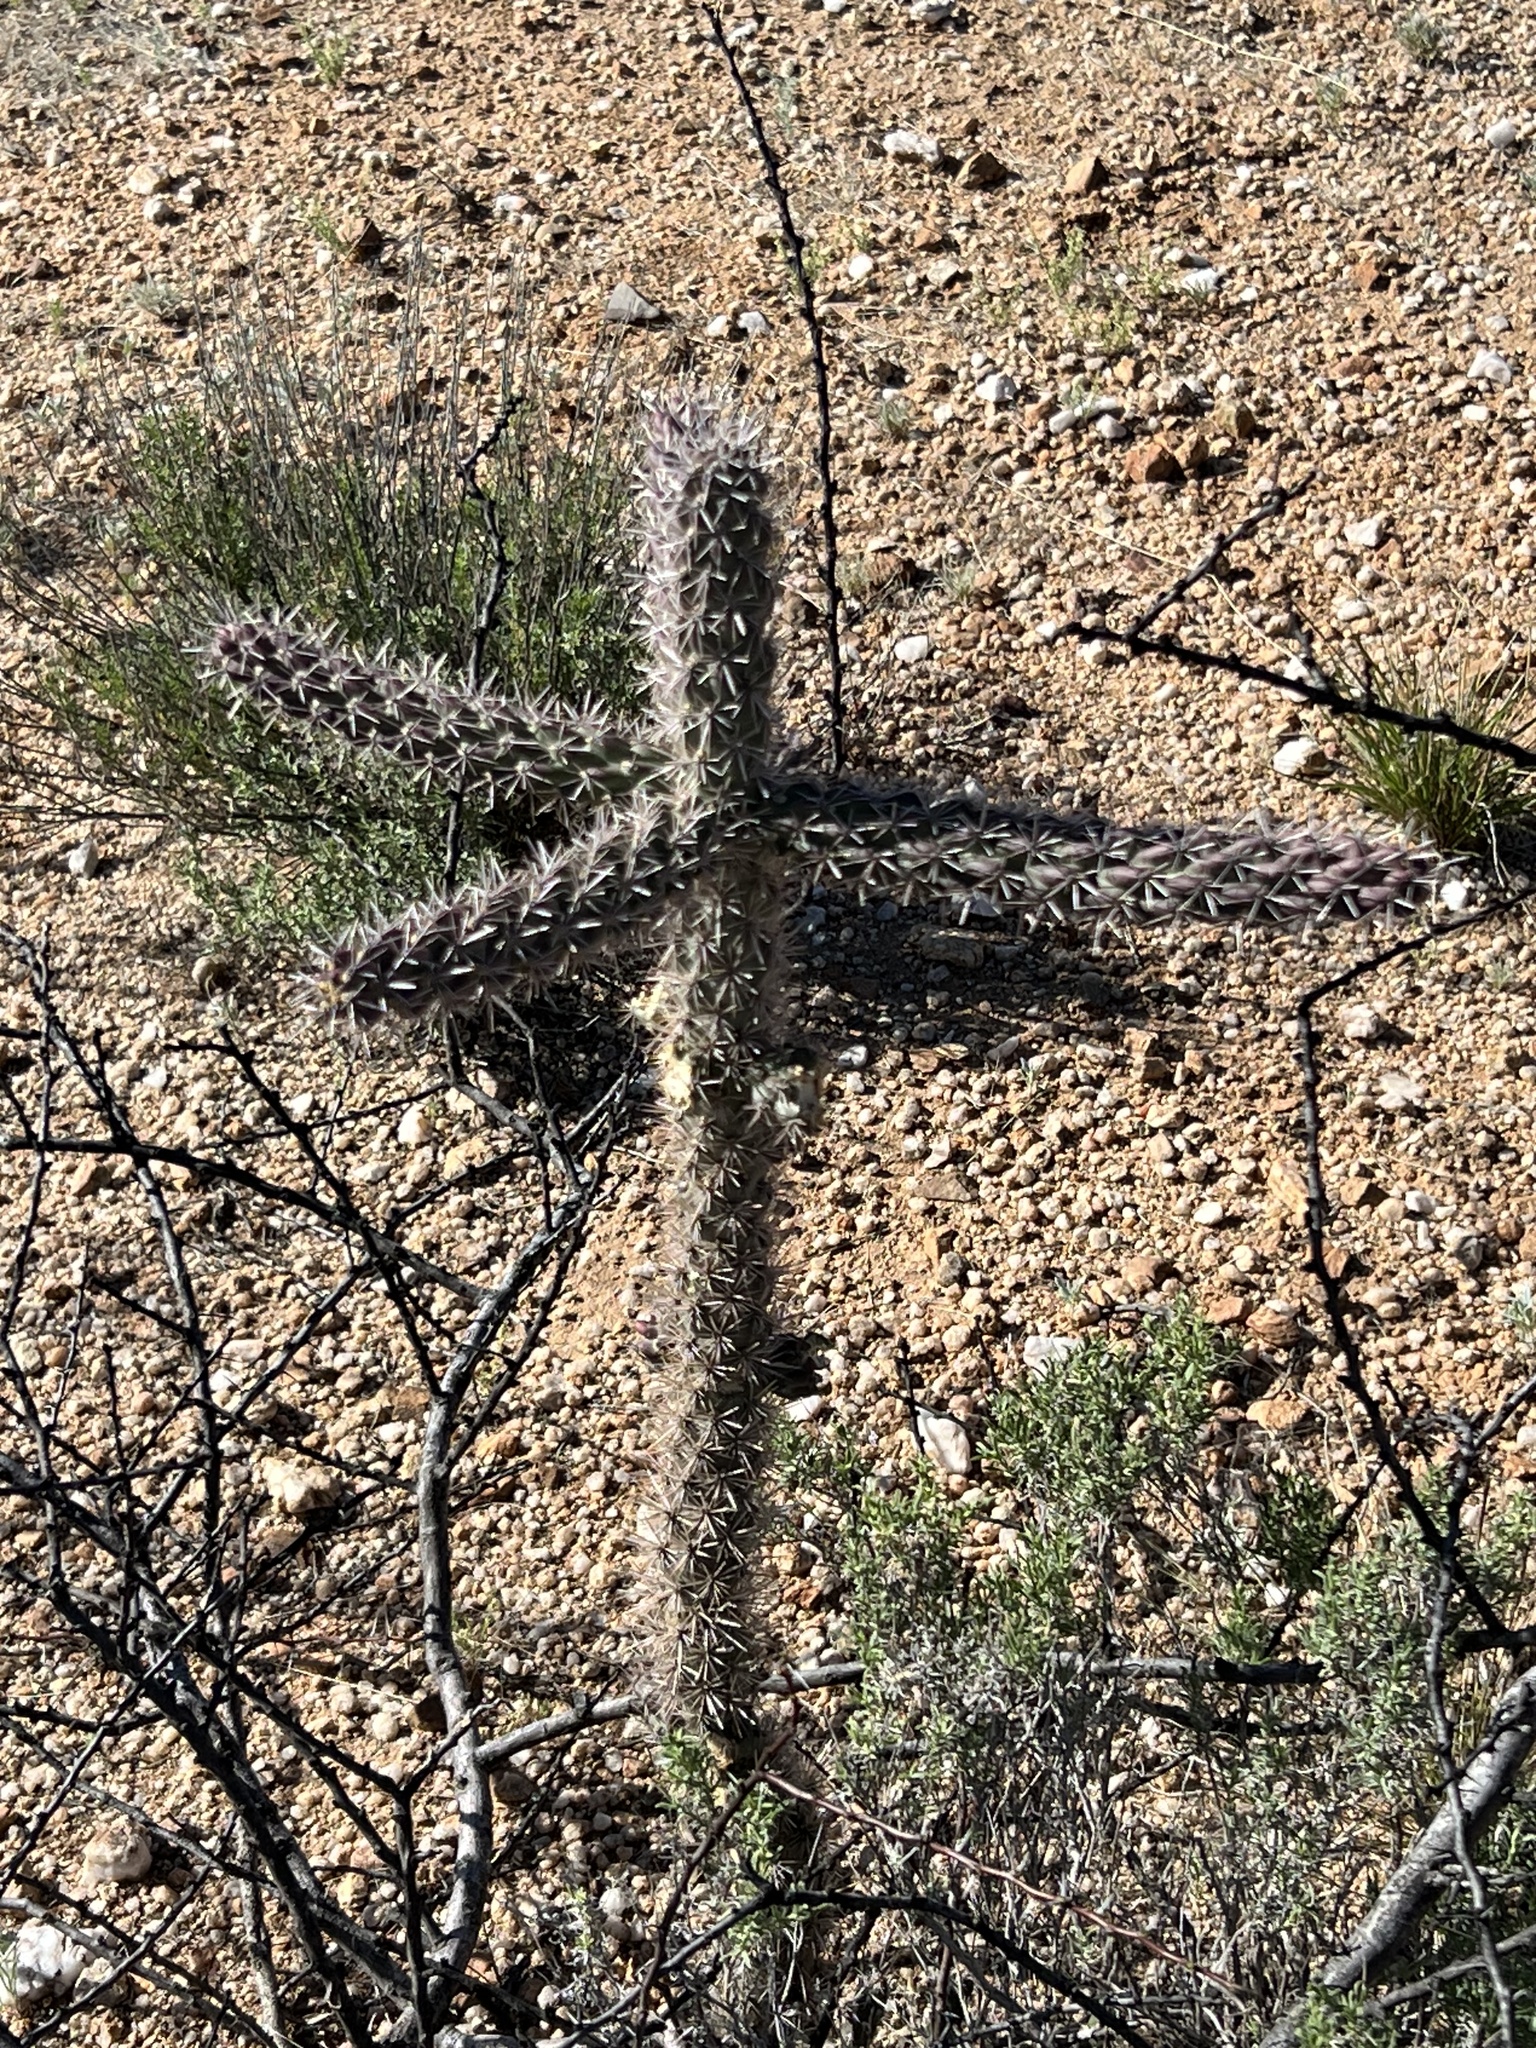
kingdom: Plantae
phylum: Tracheophyta
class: Magnoliopsida
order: Caryophyllales
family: Cactaceae
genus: Cylindropuntia
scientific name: Cylindropuntia imbricata
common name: Candelabrum cactus
